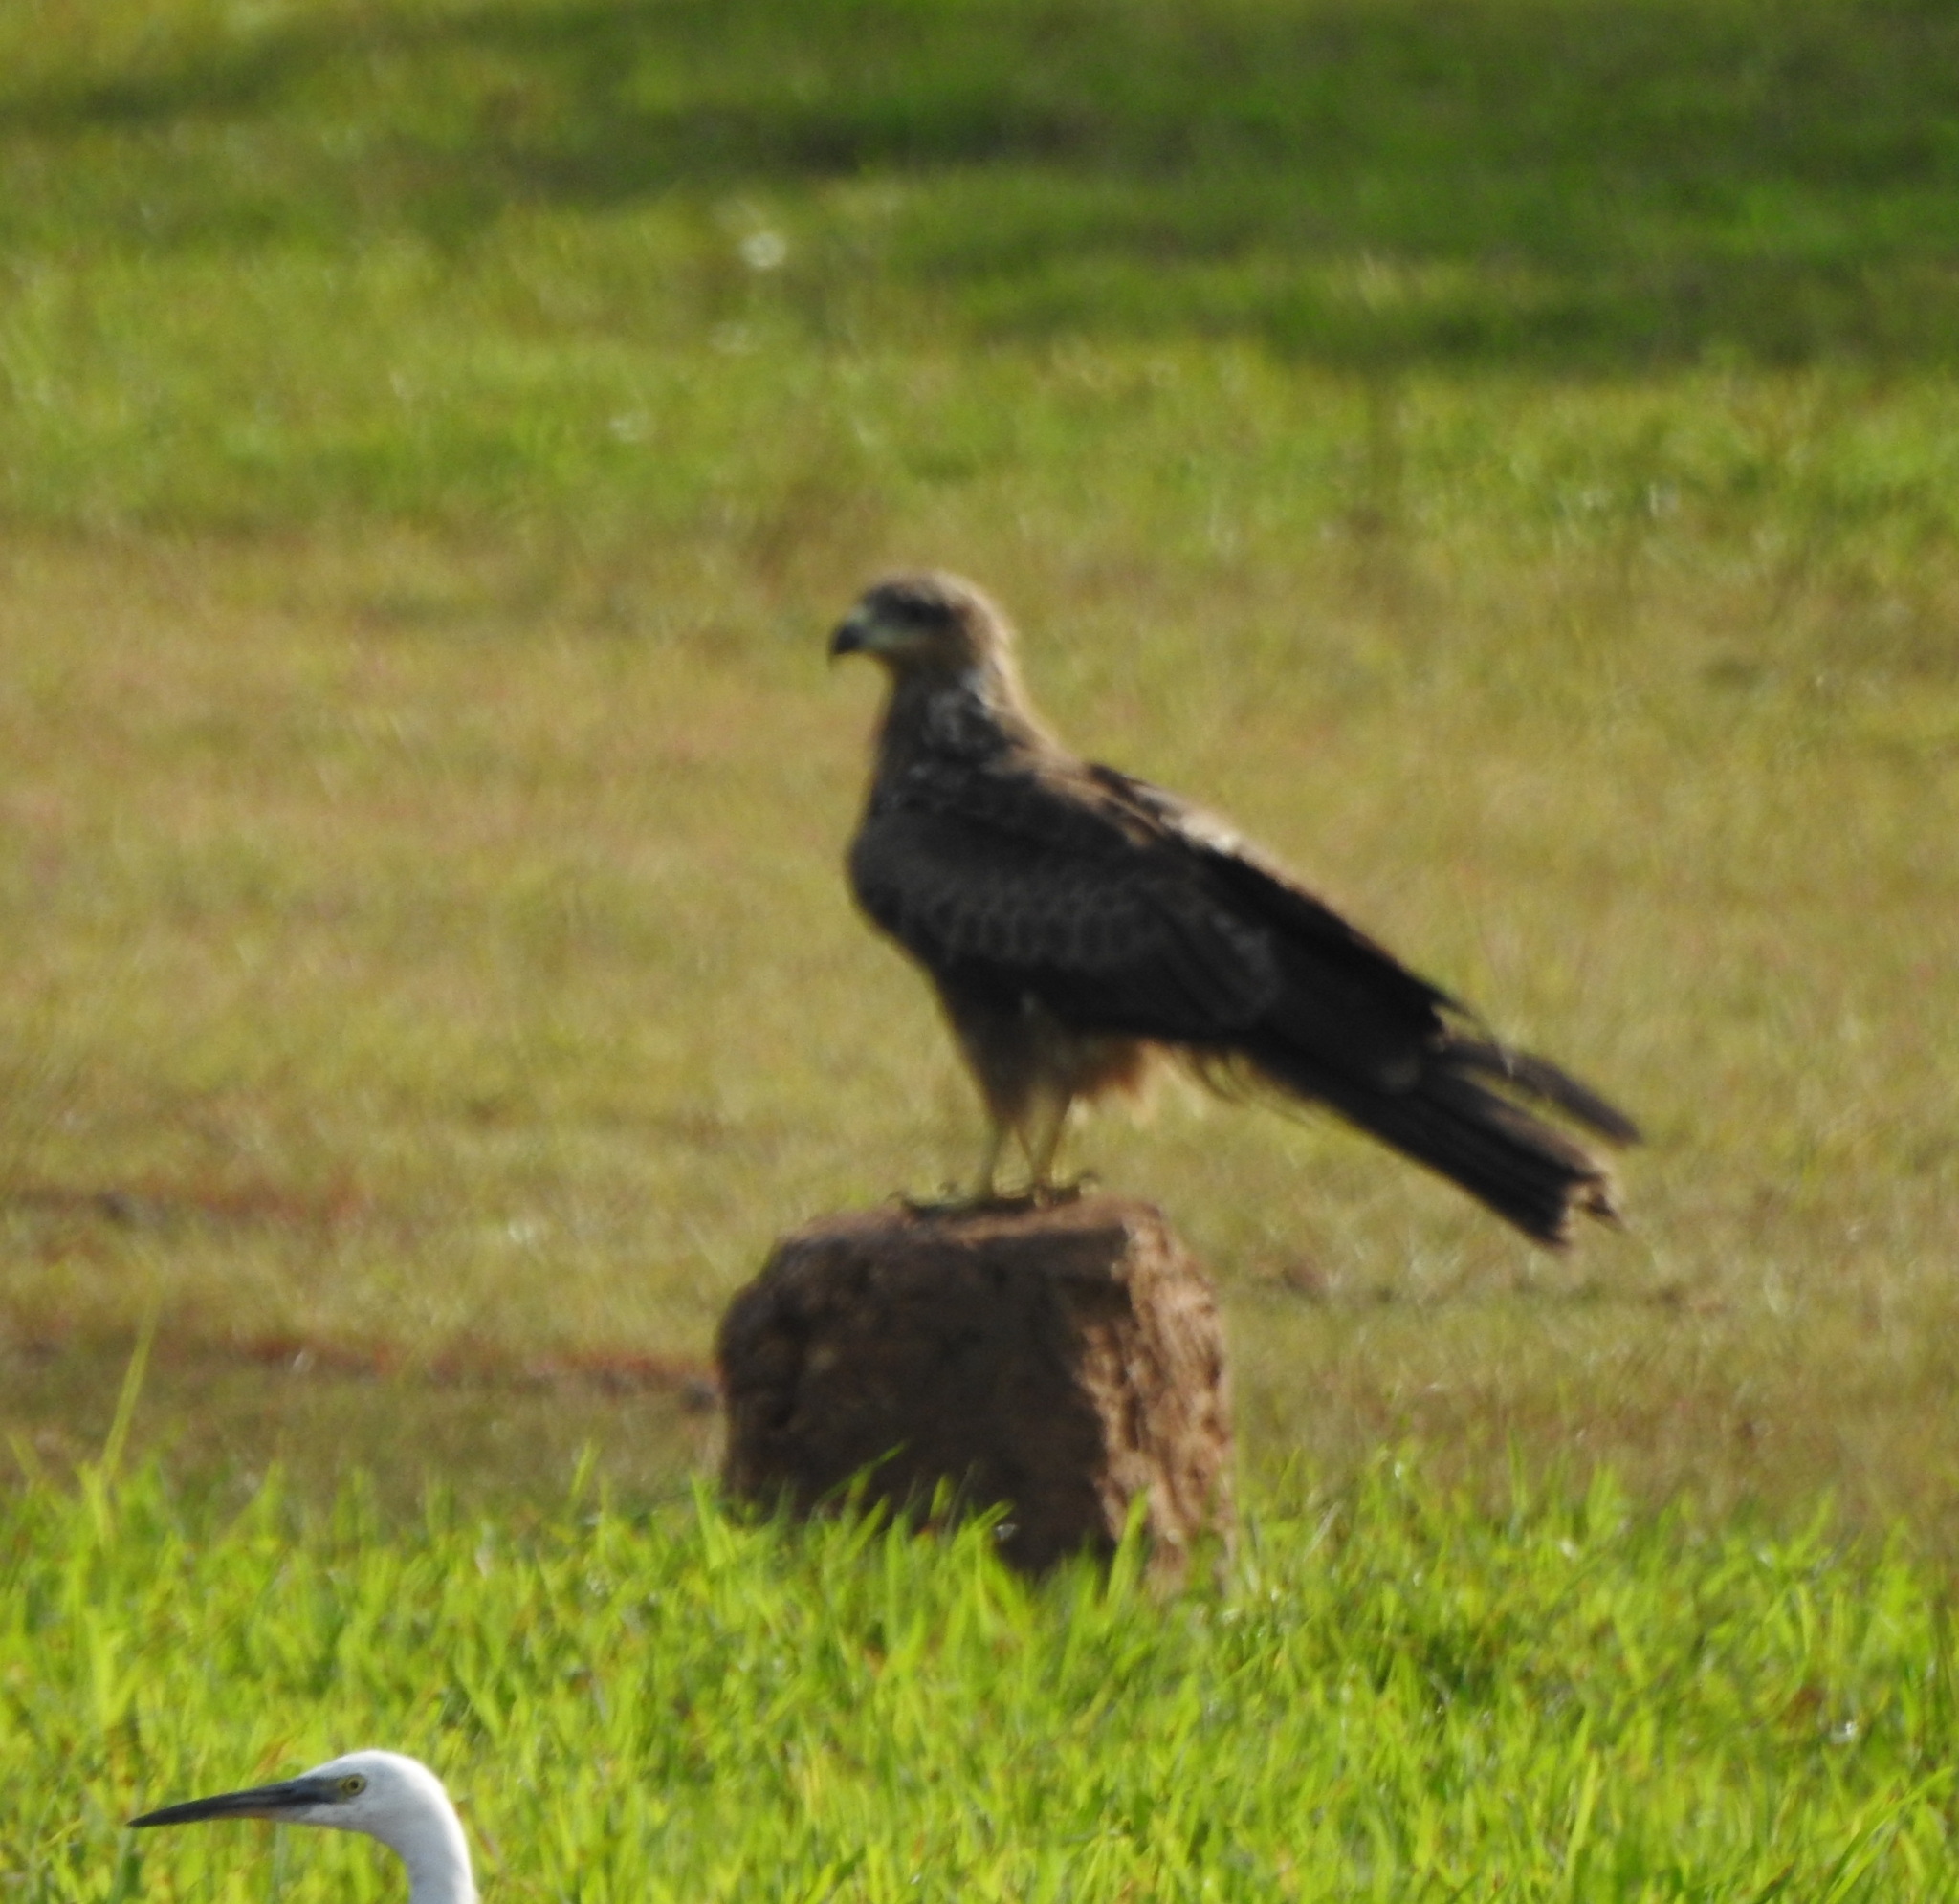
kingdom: Animalia
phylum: Chordata
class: Aves
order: Accipitriformes
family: Accipitridae
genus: Milvus
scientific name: Milvus migrans
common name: Black kite
